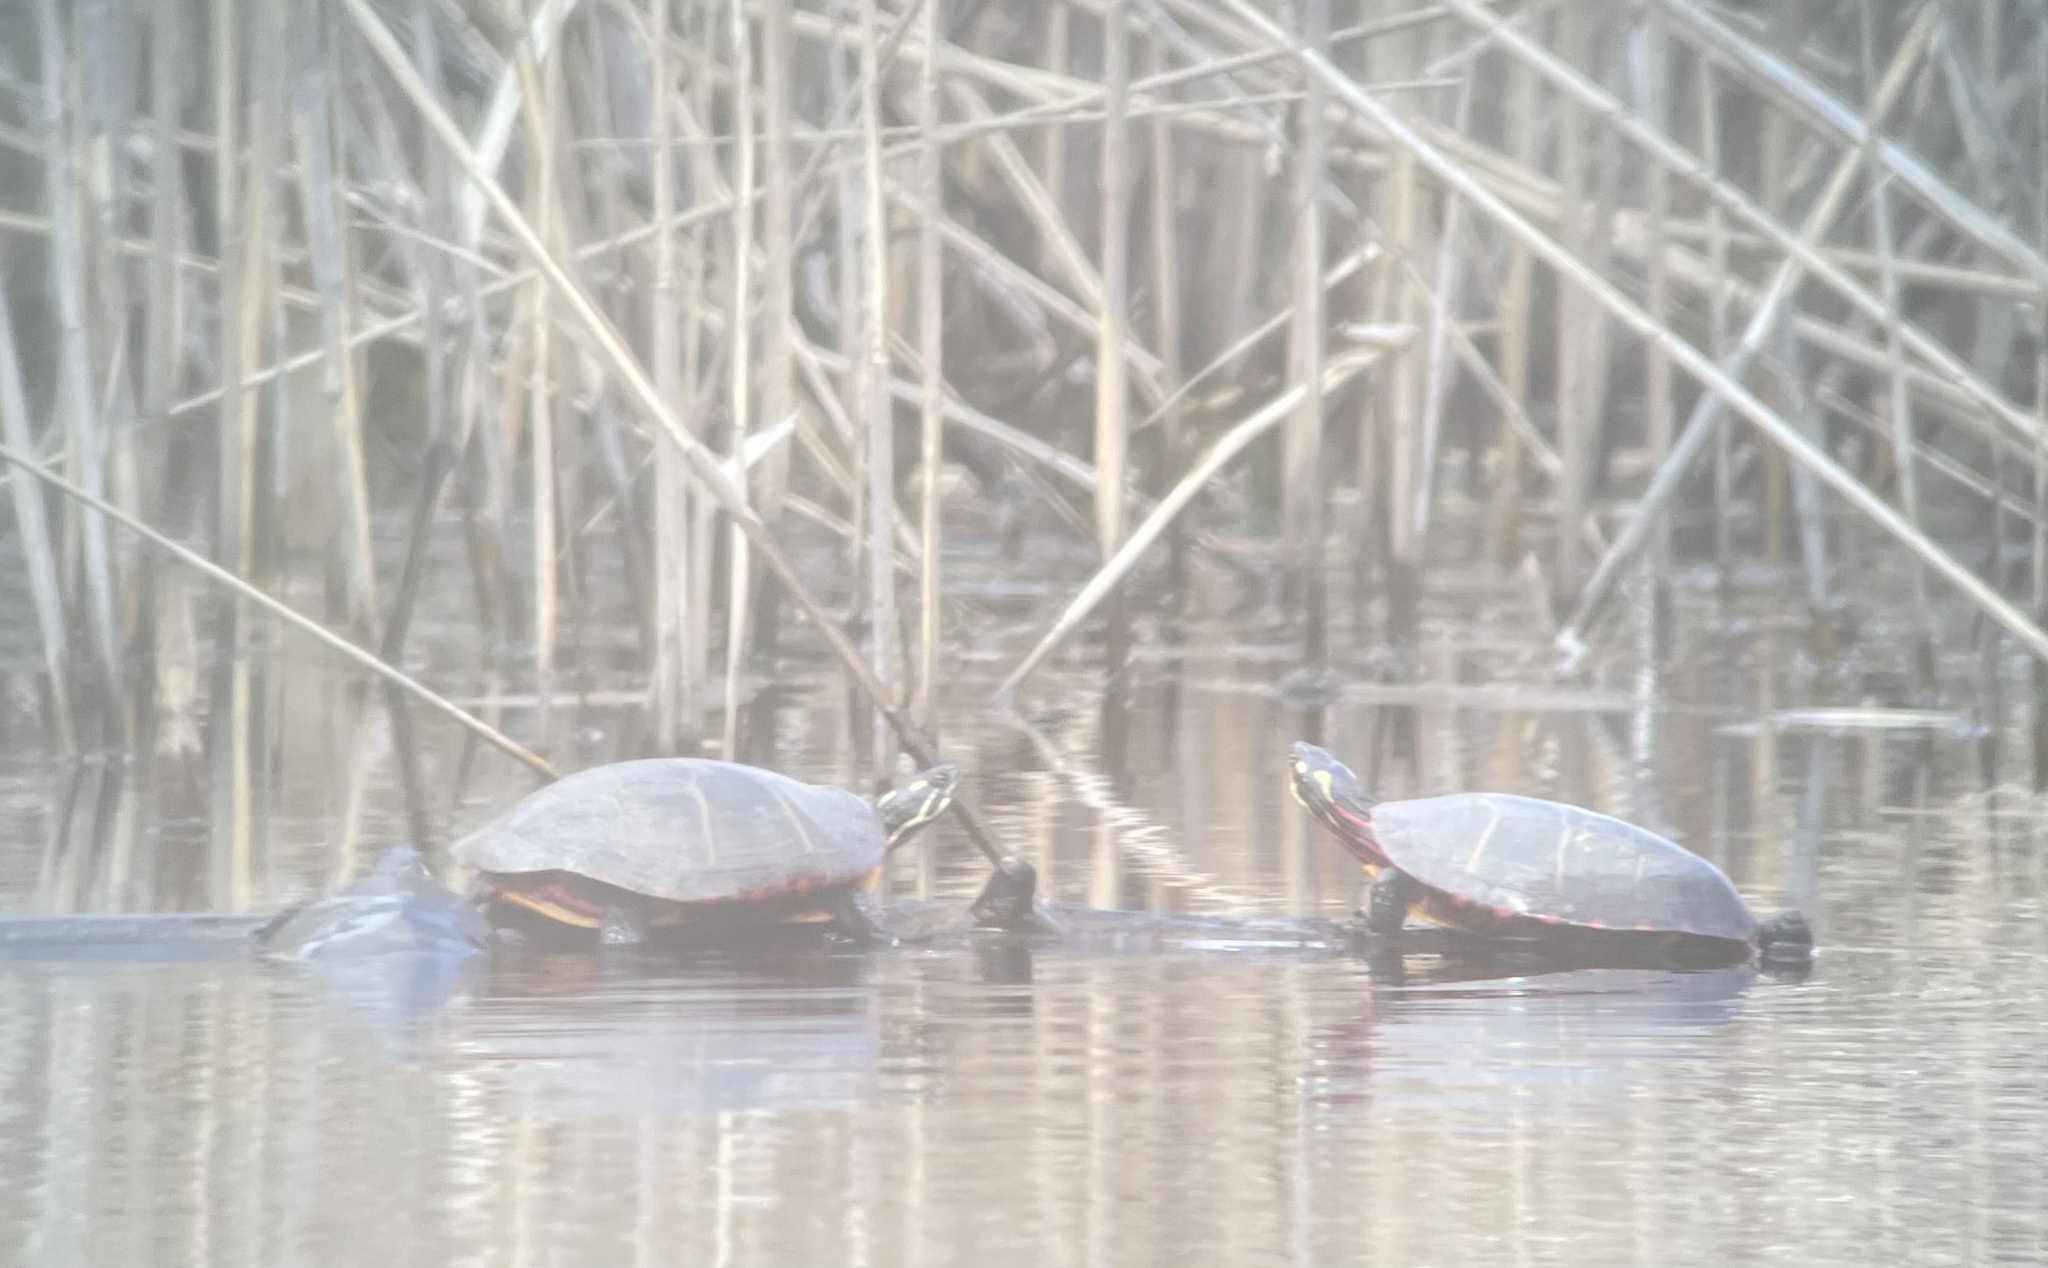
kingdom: Animalia
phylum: Chordata
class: Testudines
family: Emydidae
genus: Chrysemys
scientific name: Chrysemys picta
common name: Painted turtle
